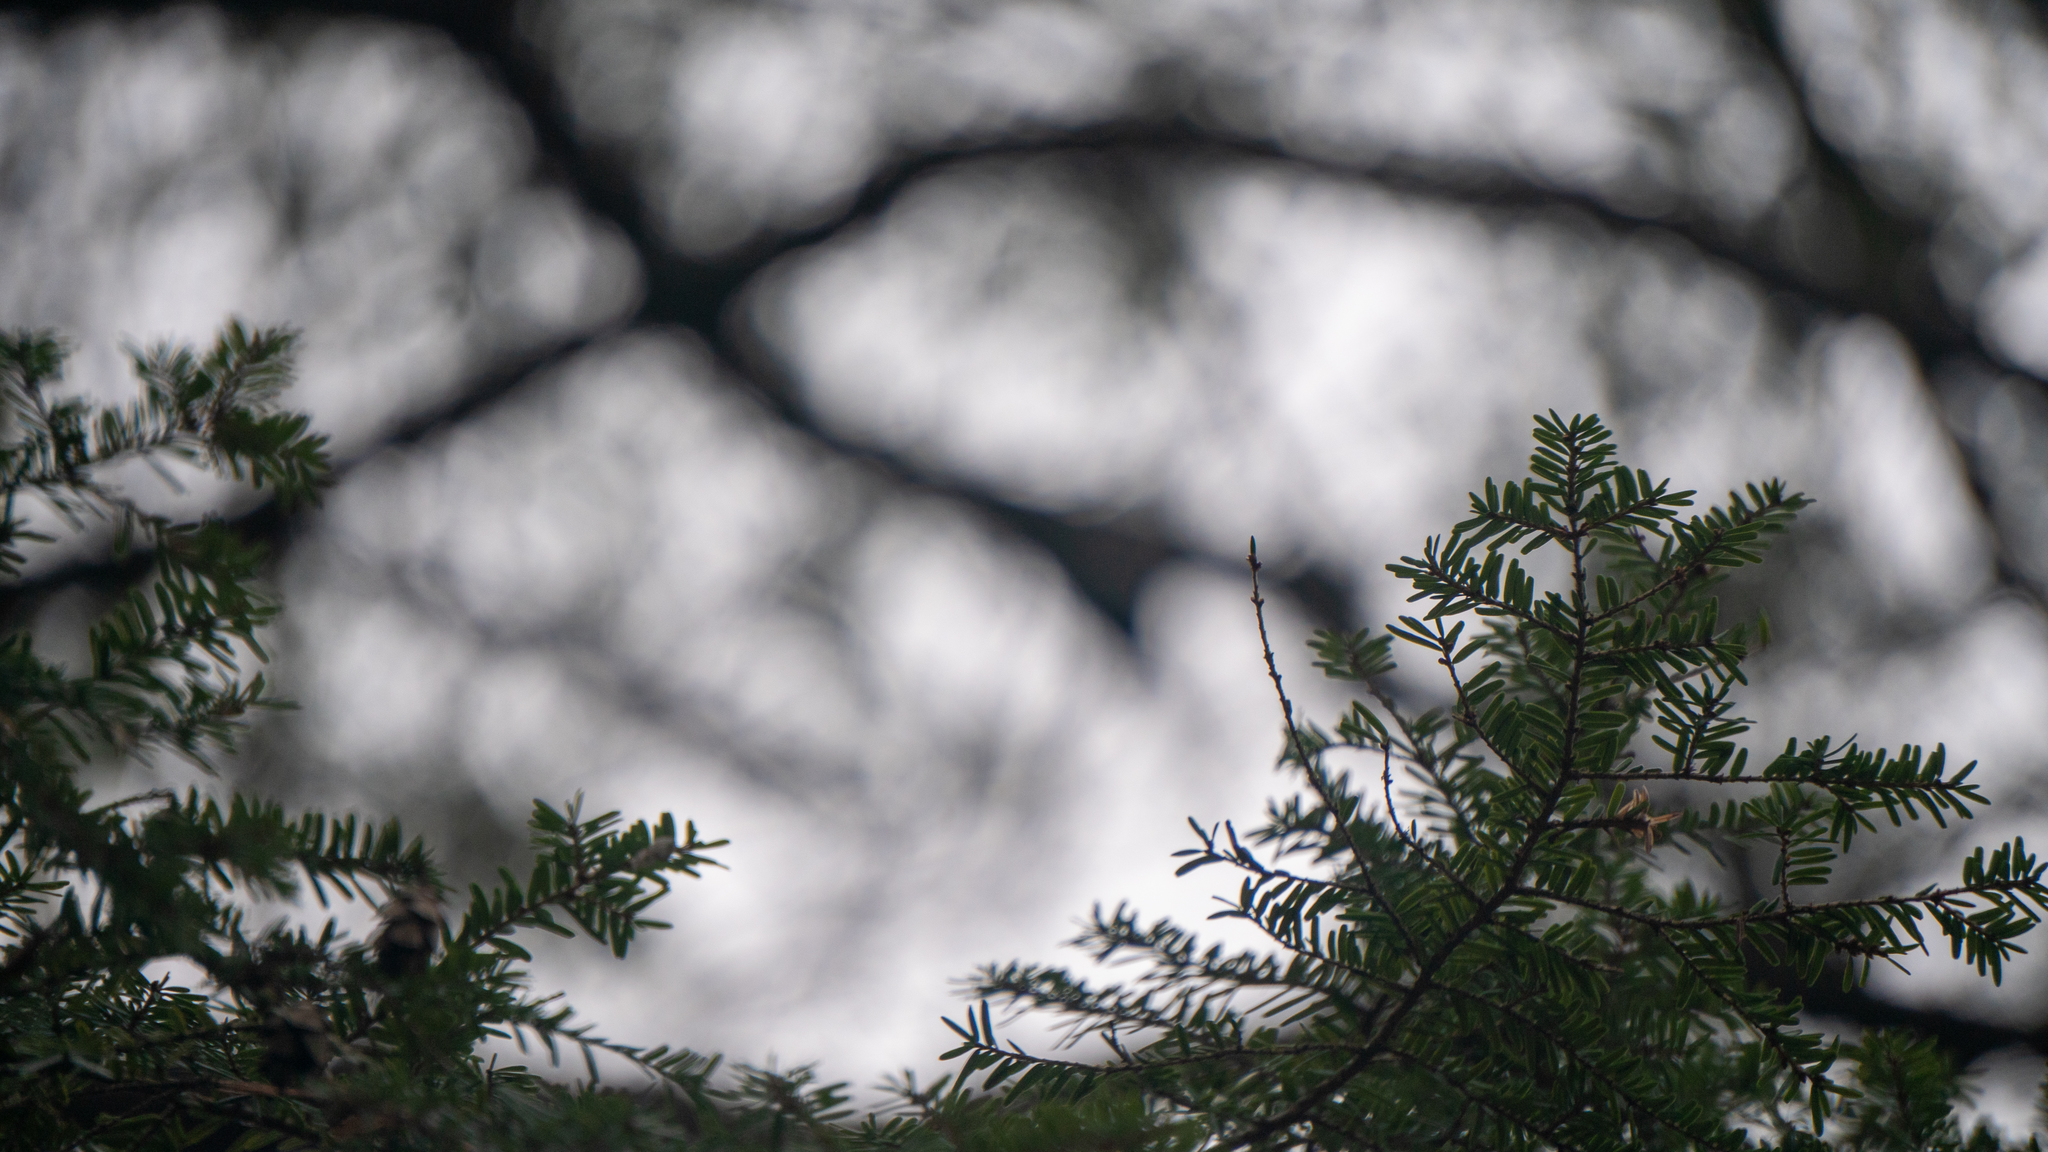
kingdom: Plantae
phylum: Tracheophyta
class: Pinopsida
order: Pinales
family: Pinaceae
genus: Tsuga
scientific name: Tsuga canadensis
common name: Eastern hemlock
